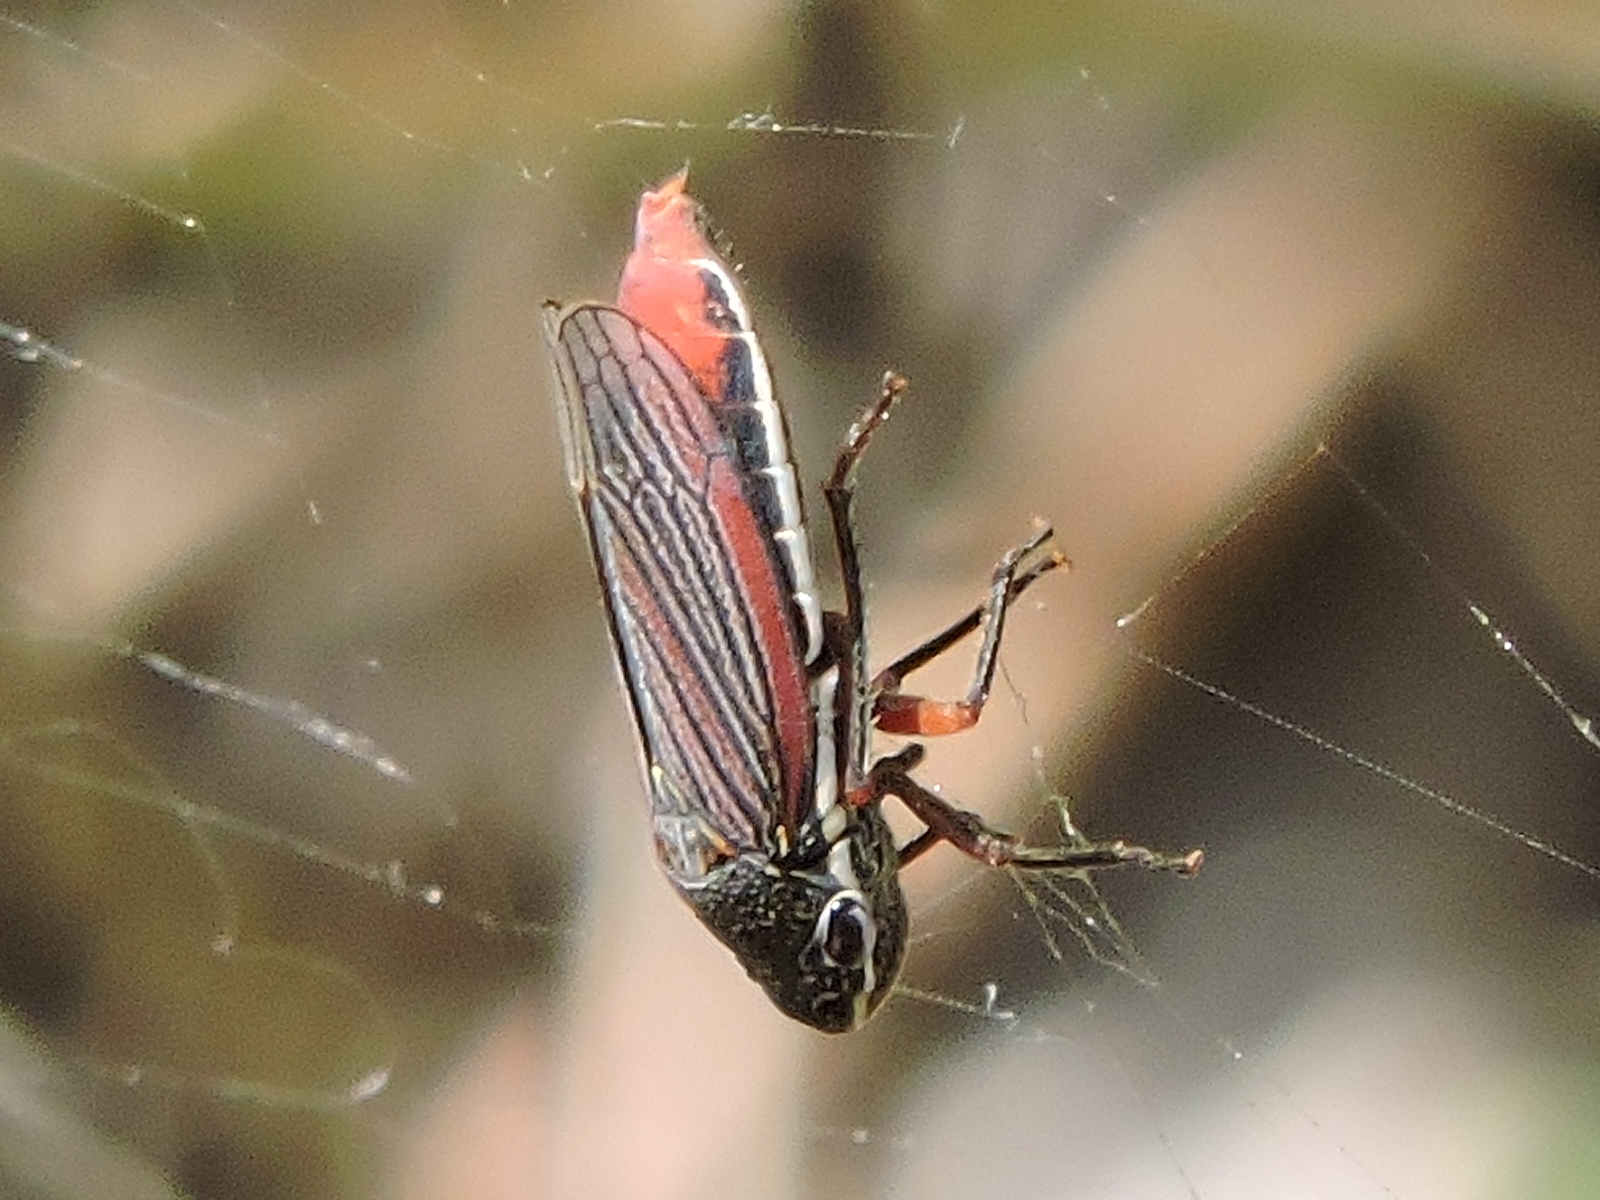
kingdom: Animalia
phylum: Arthropoda
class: Insecta
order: Hemiptera
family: Cicadellidae
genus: Cuerna
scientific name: Cuerna costalis
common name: Lateral-lined sharpshooter
